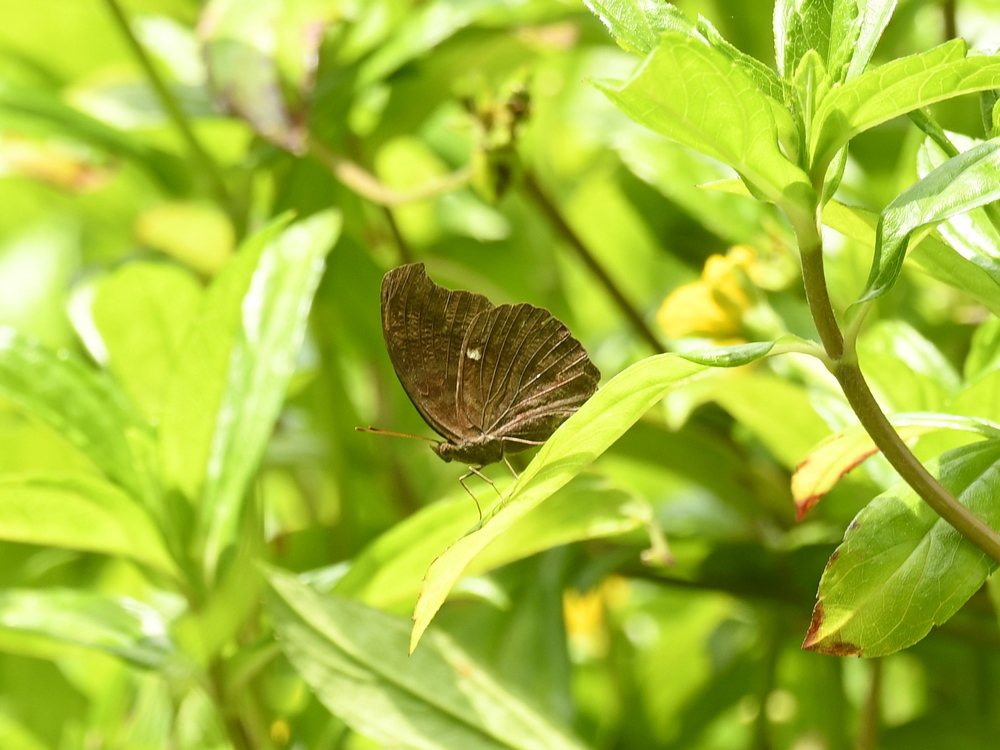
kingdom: Animalia
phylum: Arthropoda
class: Insecta
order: Lepidoptera
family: Nymphalidae
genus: Junonia
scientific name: Junonia iphita
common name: Chocolate pansy
